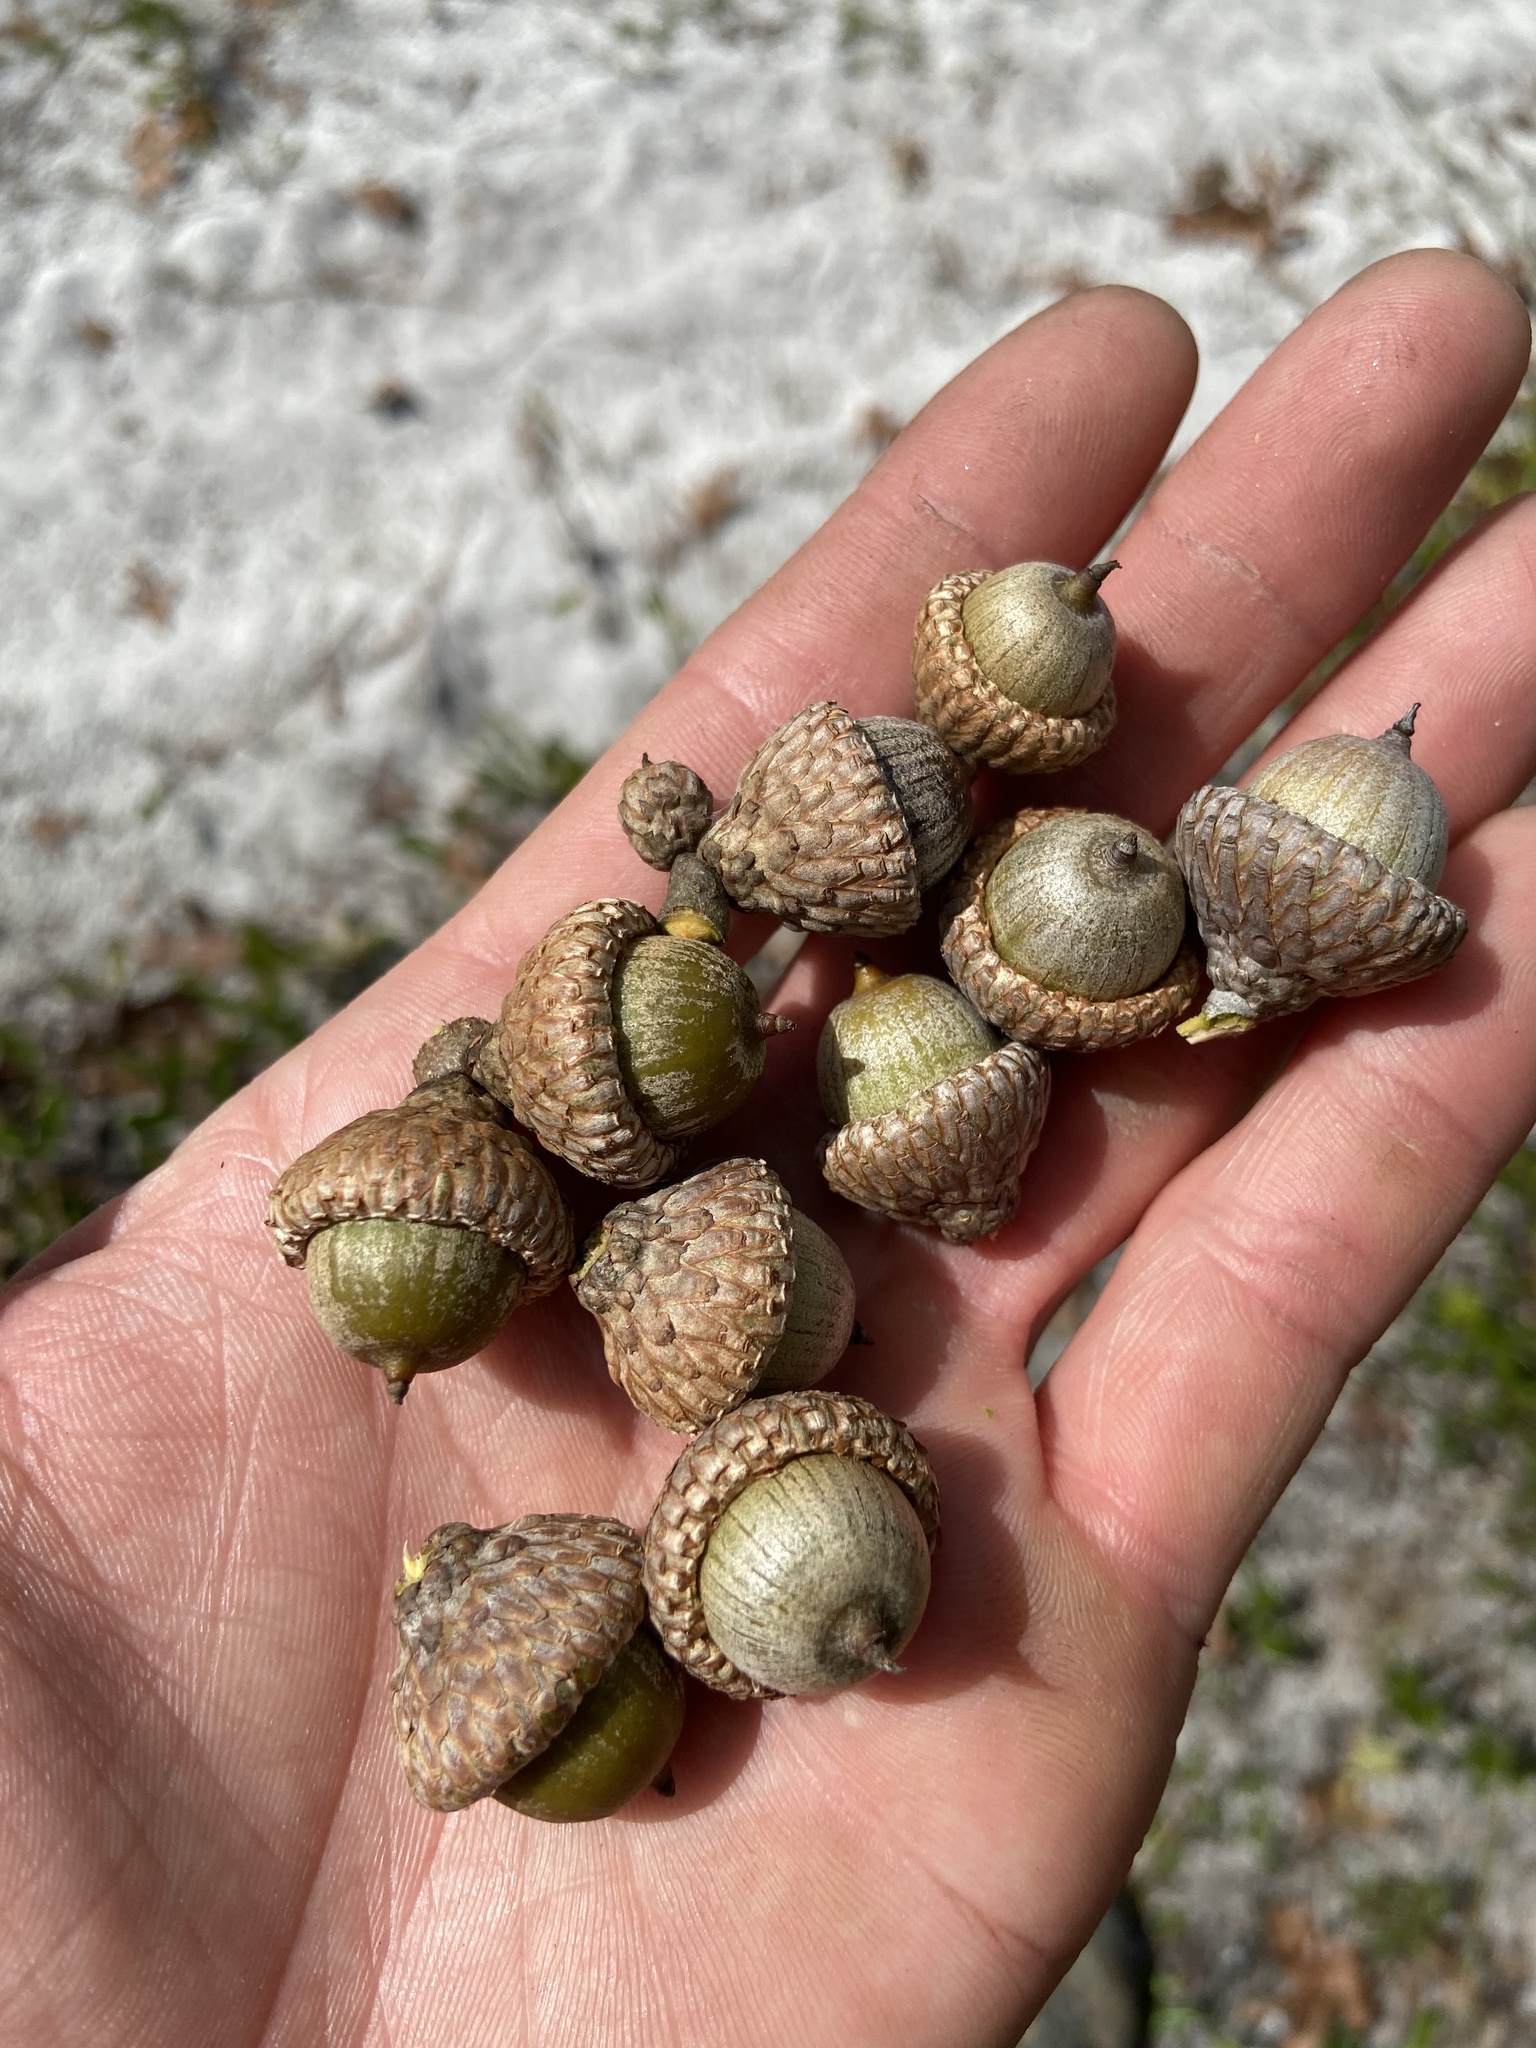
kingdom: Plantae
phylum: Tracheophyta
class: Magnoliopsida
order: Fagales
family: Fagaceae
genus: Quercus
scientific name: Quercus laevis
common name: Turkey oak
